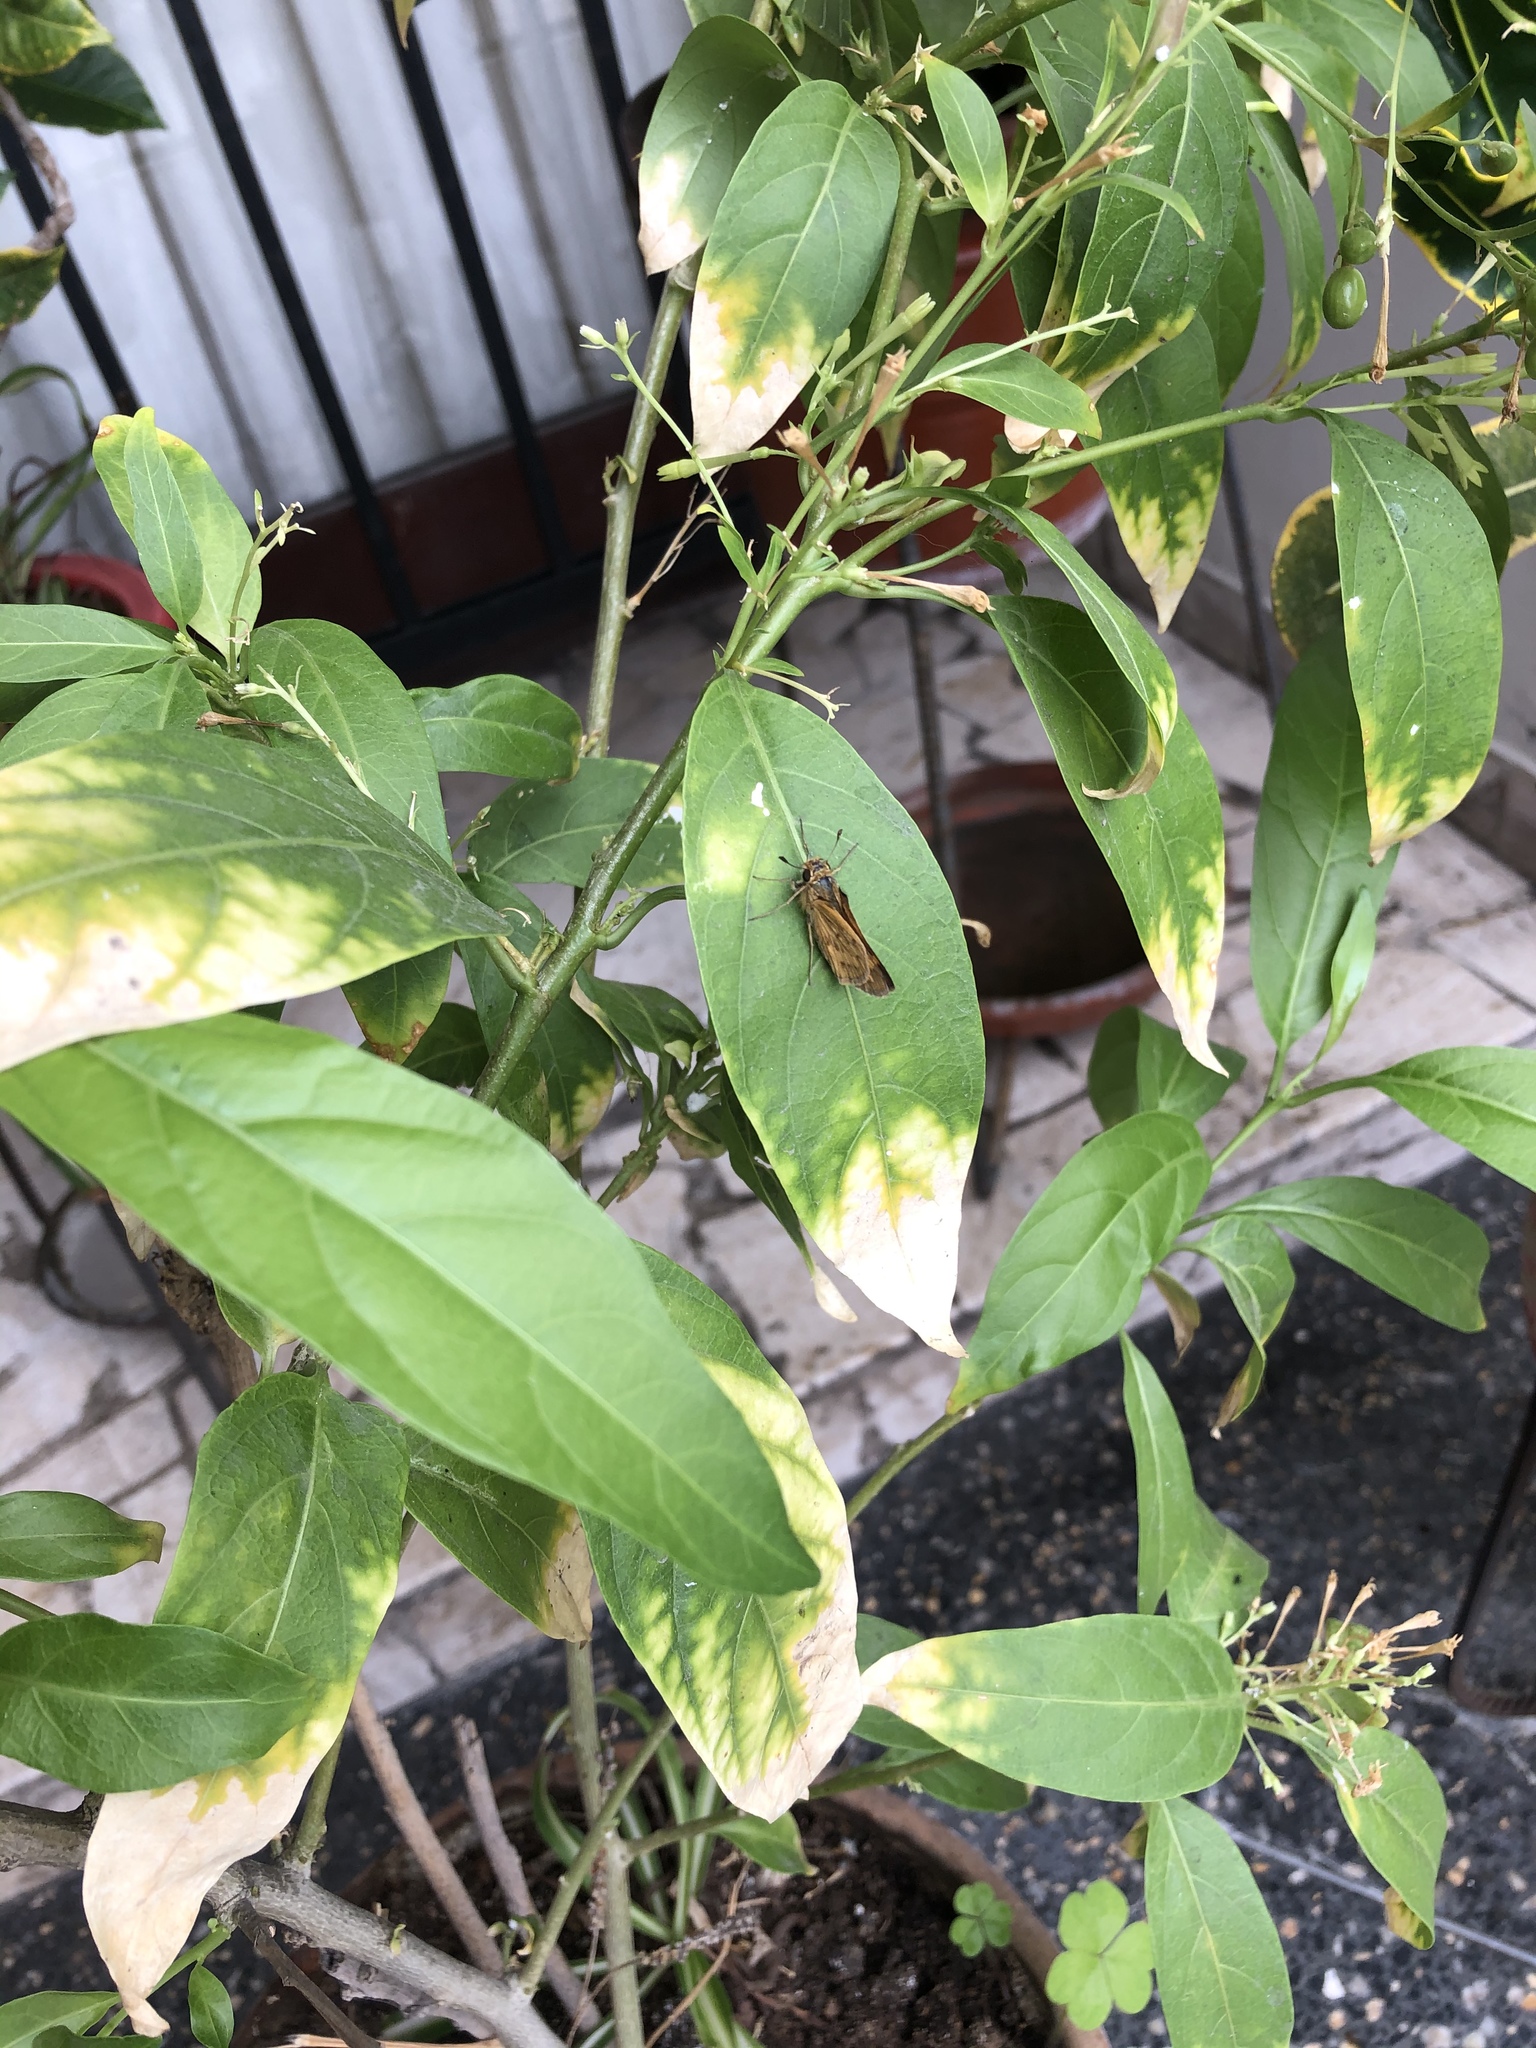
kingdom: Animalia
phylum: Arthropoda
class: Insecta
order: Lepidoptera
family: Hesperiidae
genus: Hylephila
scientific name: Hylephila phyleus
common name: Fiery skipper
